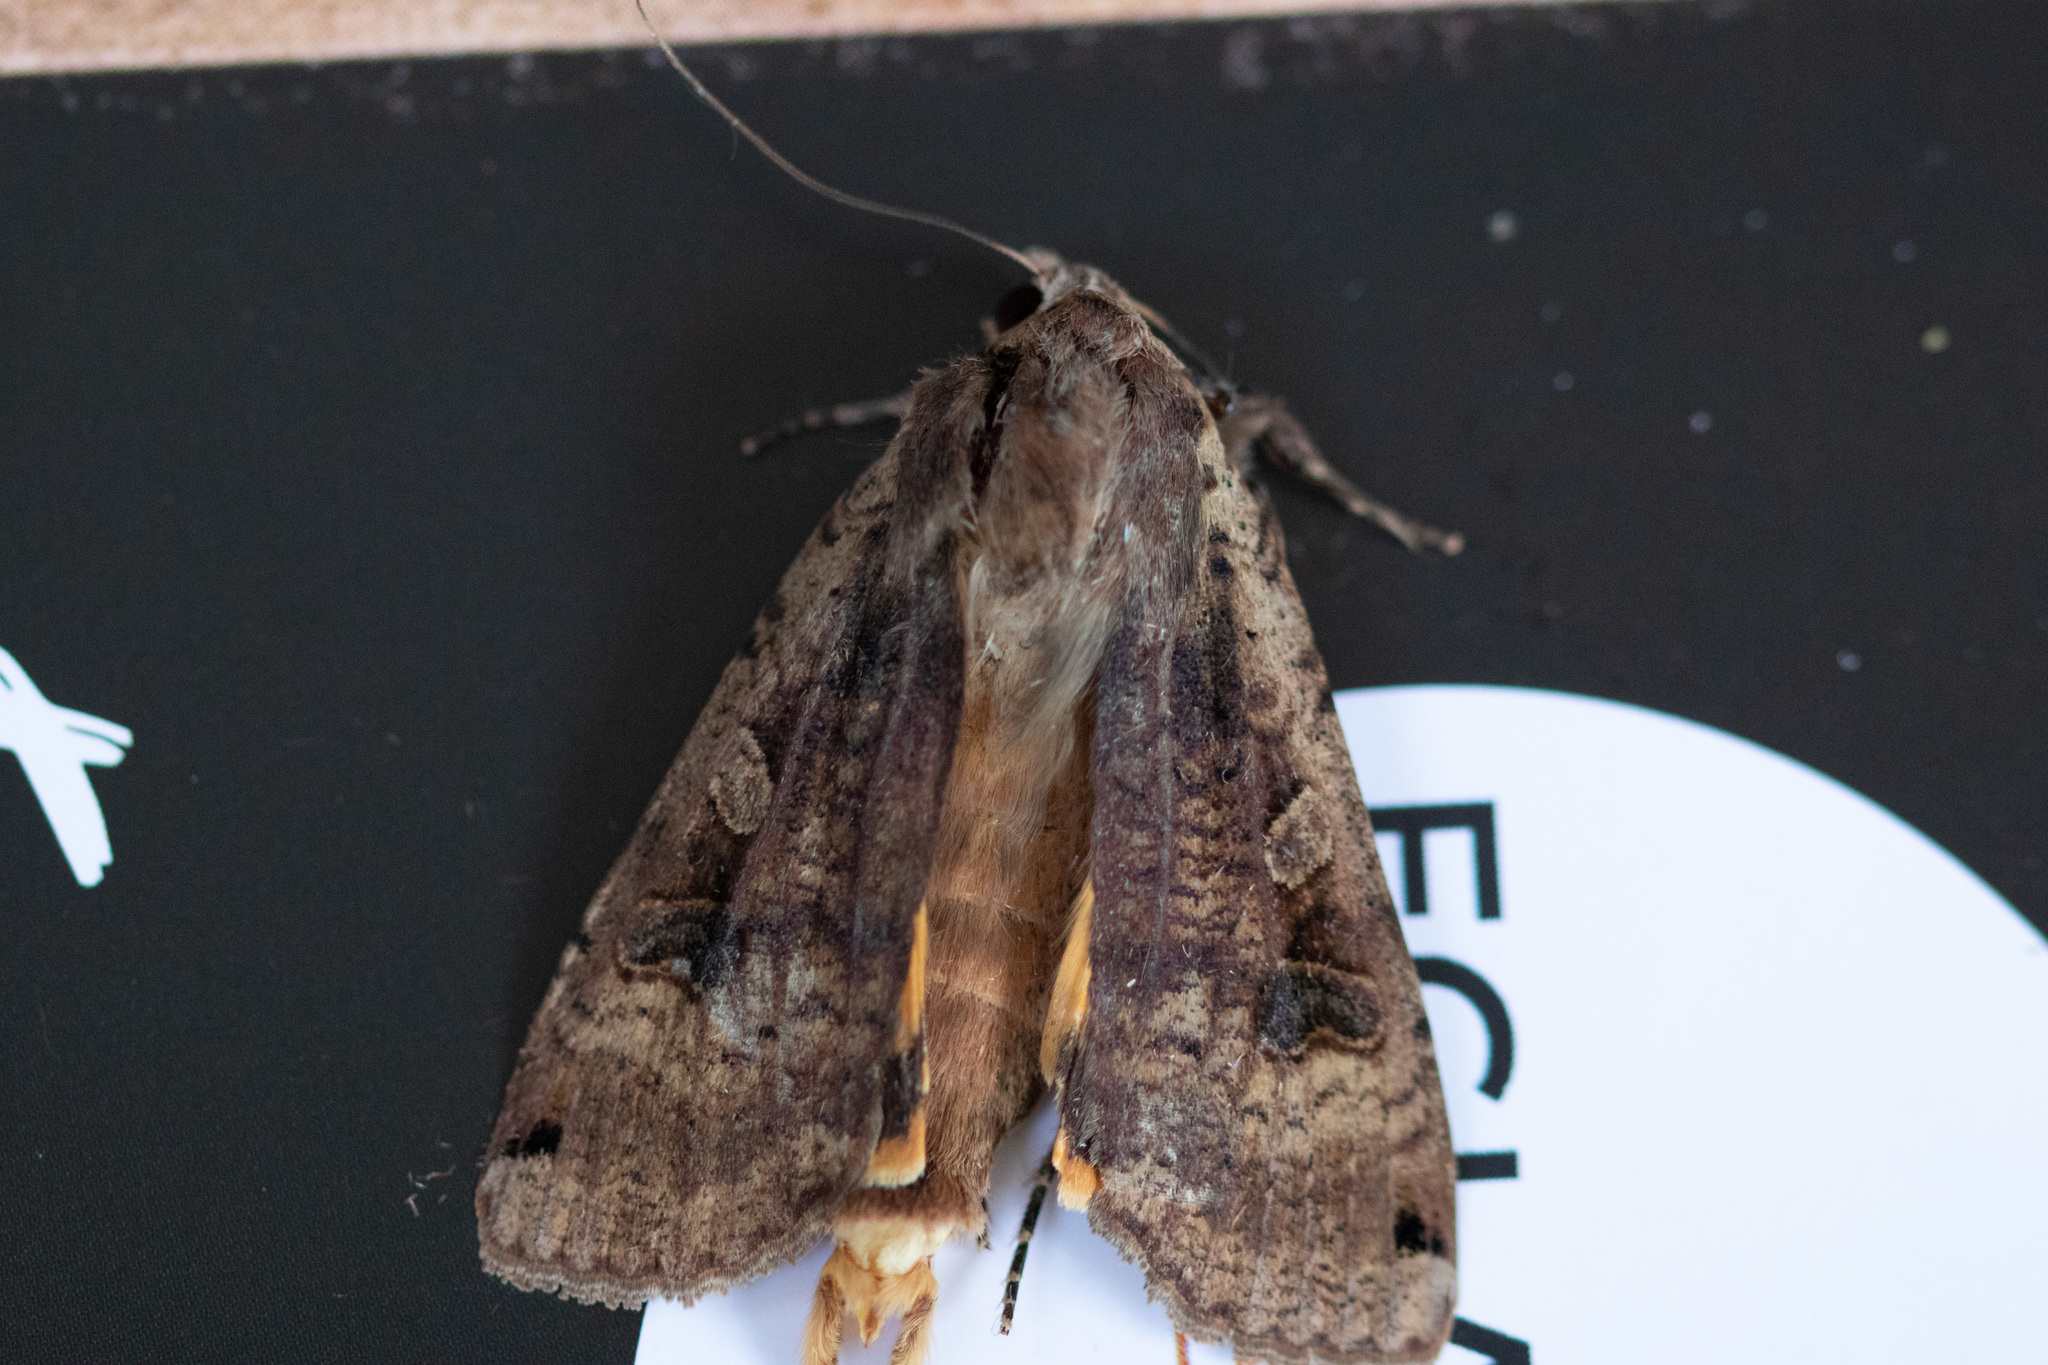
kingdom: Animalia
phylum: Arthropoda
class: Insecta
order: Lepidoptera
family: Noctuidae
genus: Noctua
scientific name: Noctua pronuba
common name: Large yellow underwing
